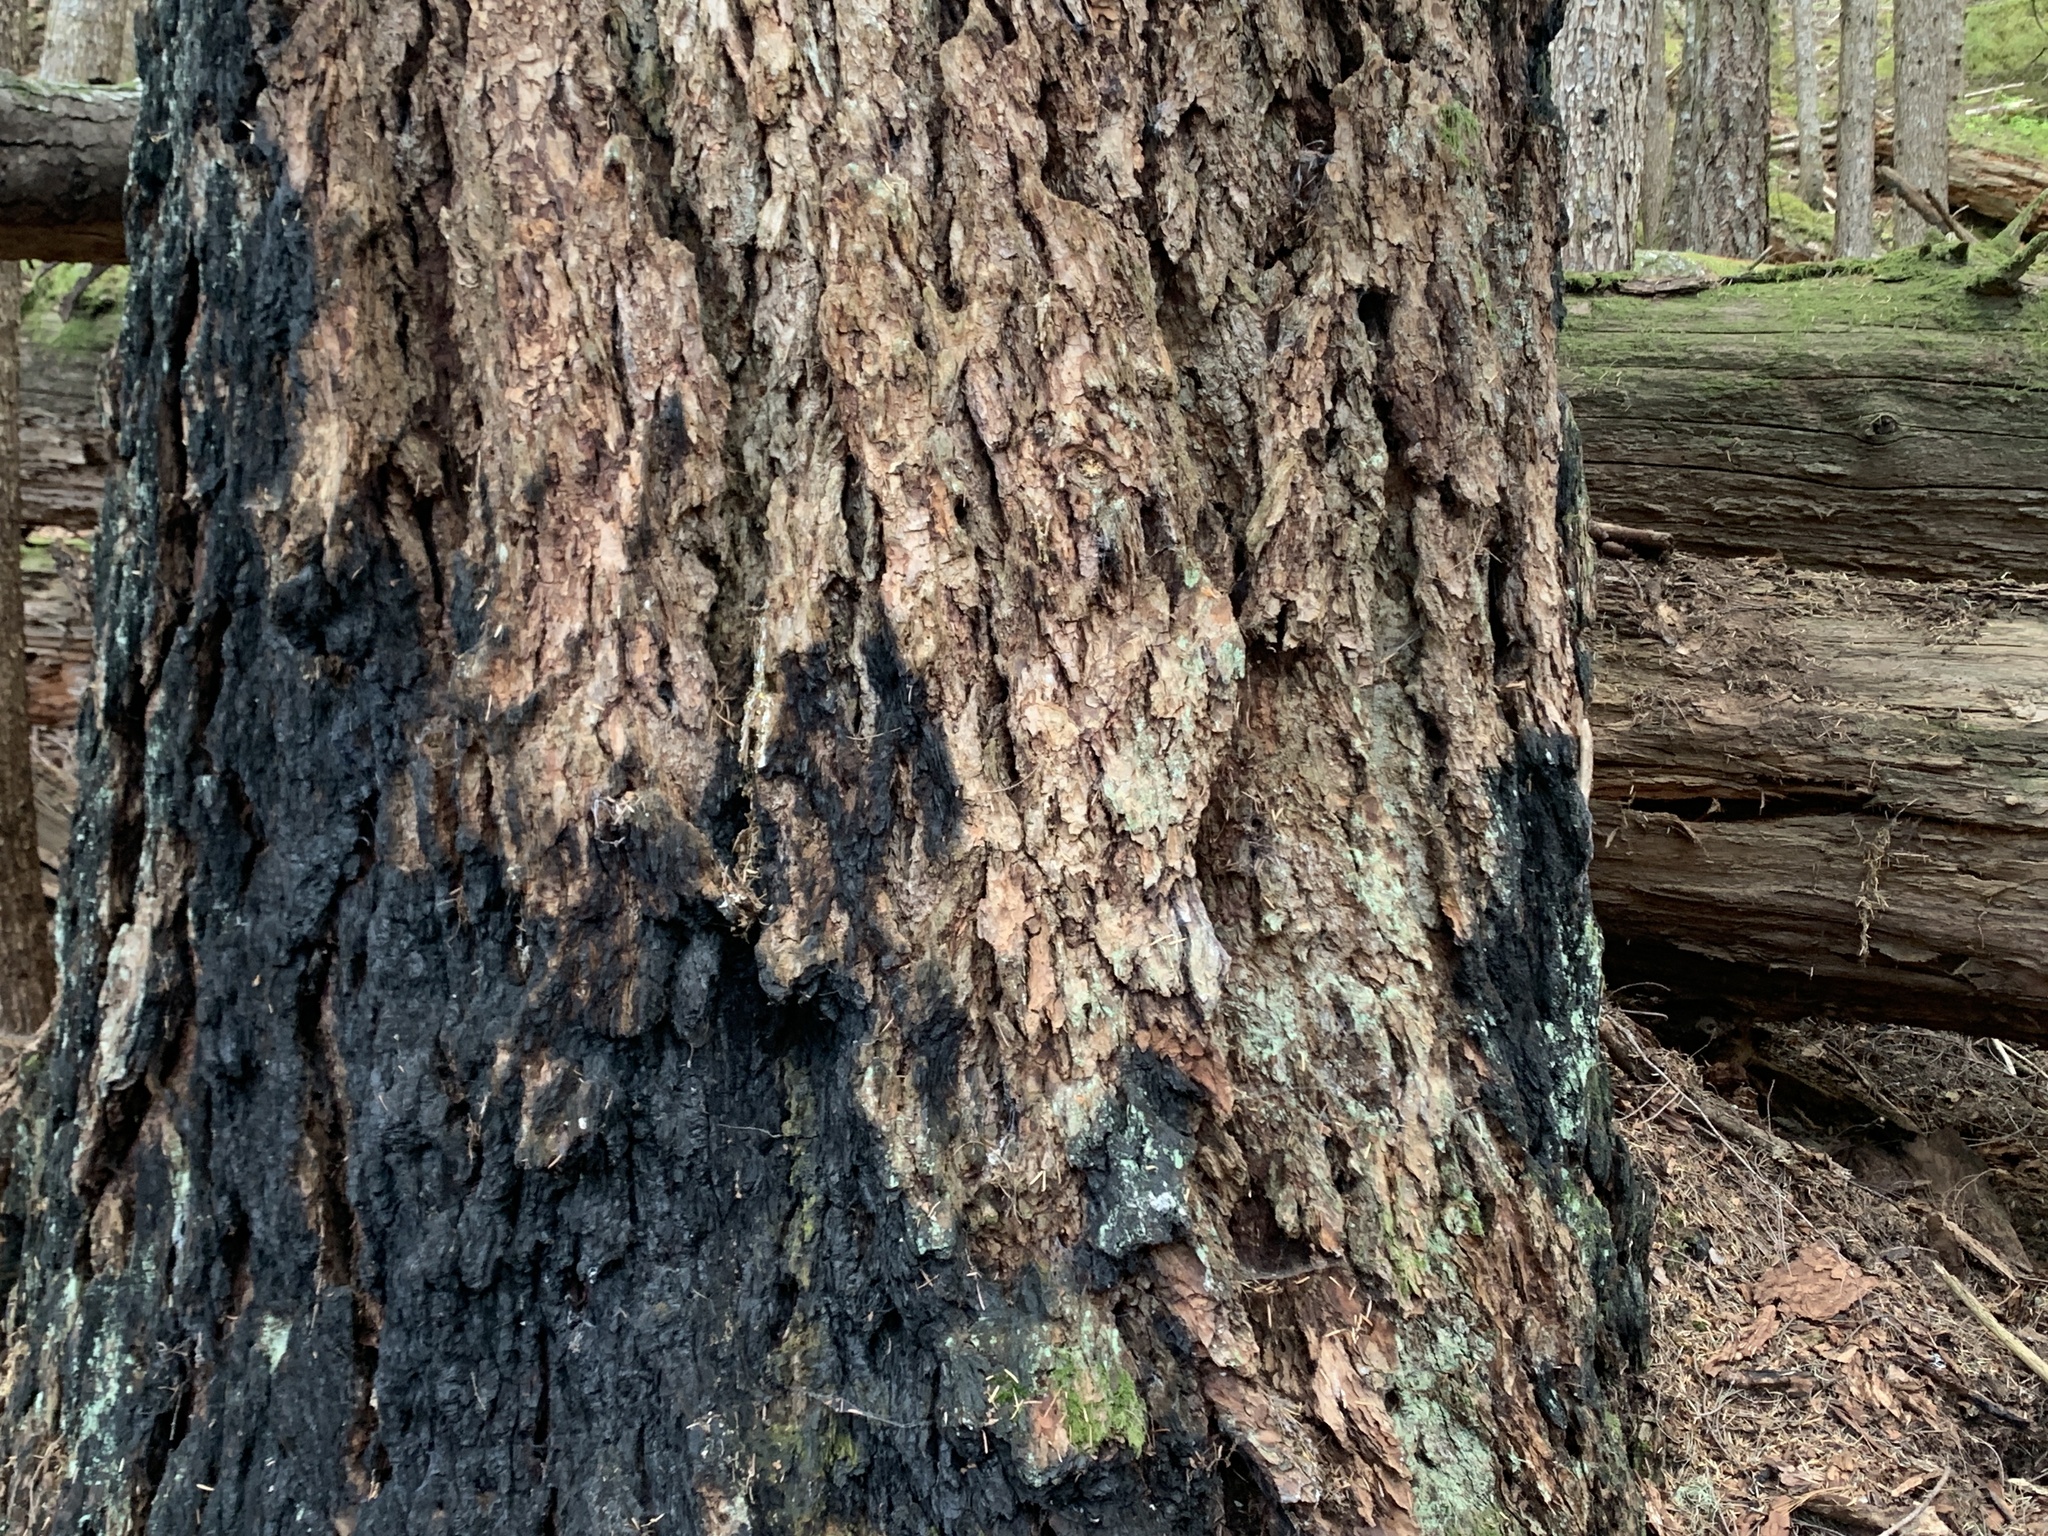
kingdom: Plantae
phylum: Tracheophyta
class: Pinopsida
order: Pinales
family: Pinaceae
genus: Pseudotsuga
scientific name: Pseudotsuga menziesii
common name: Douglas fir
